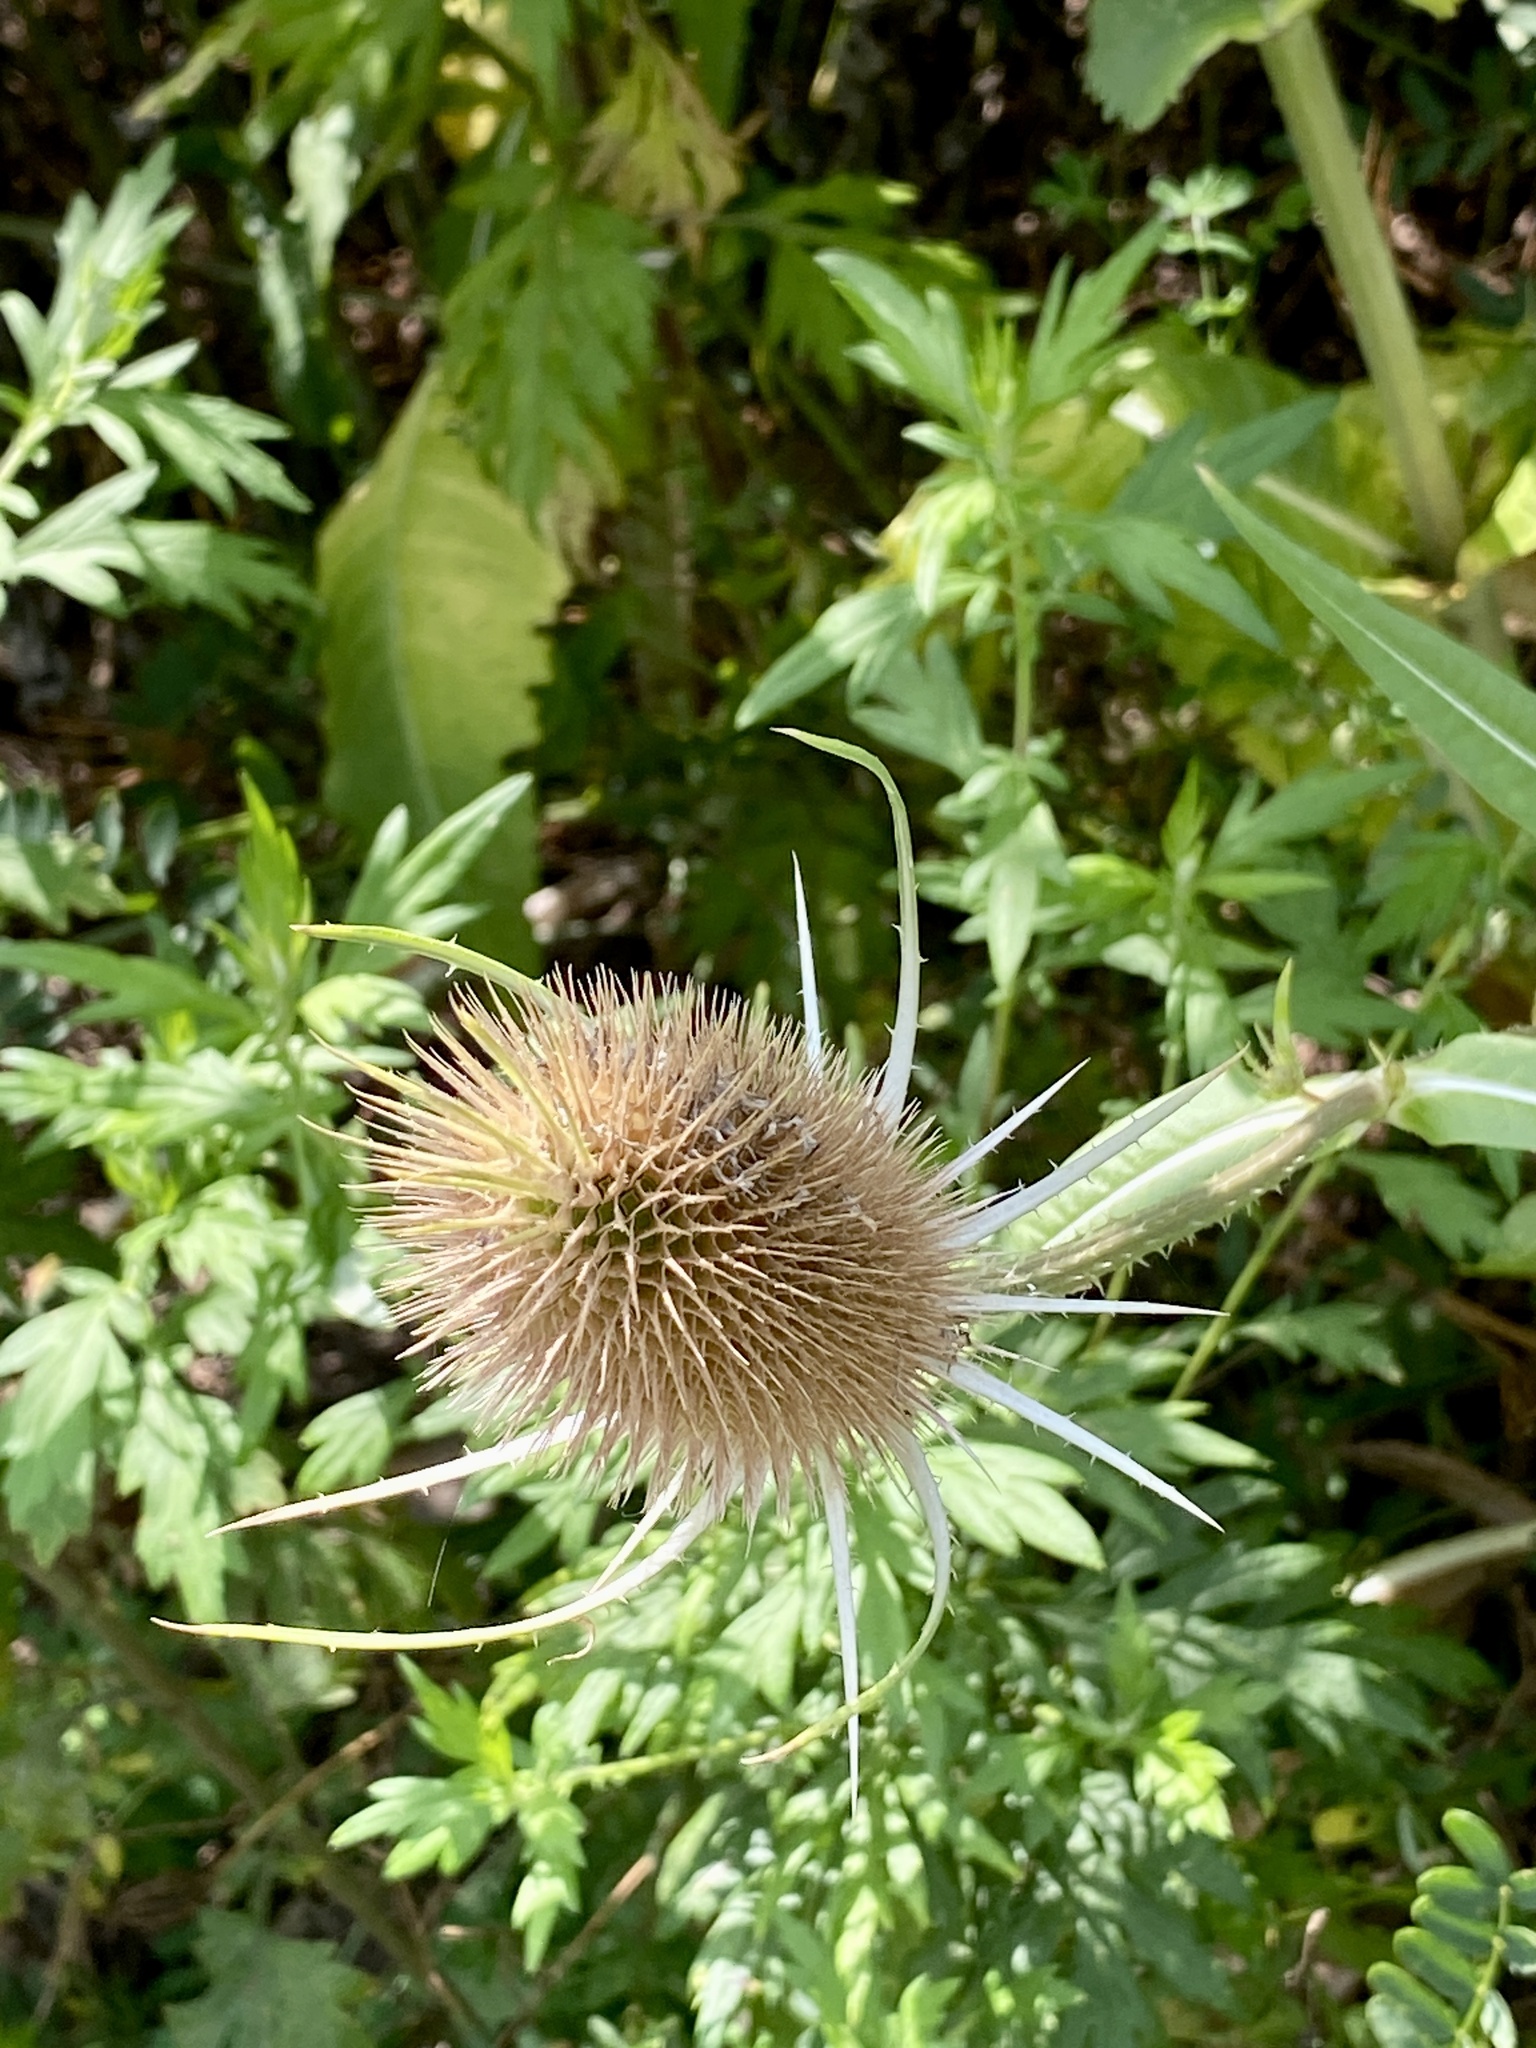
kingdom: Plantae
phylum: Tracheophyta
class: Magnoliopsida
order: Dipsacales
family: Caprifoliaceae
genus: Dipsacus
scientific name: Dipsacus fullonum
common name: Teasel
